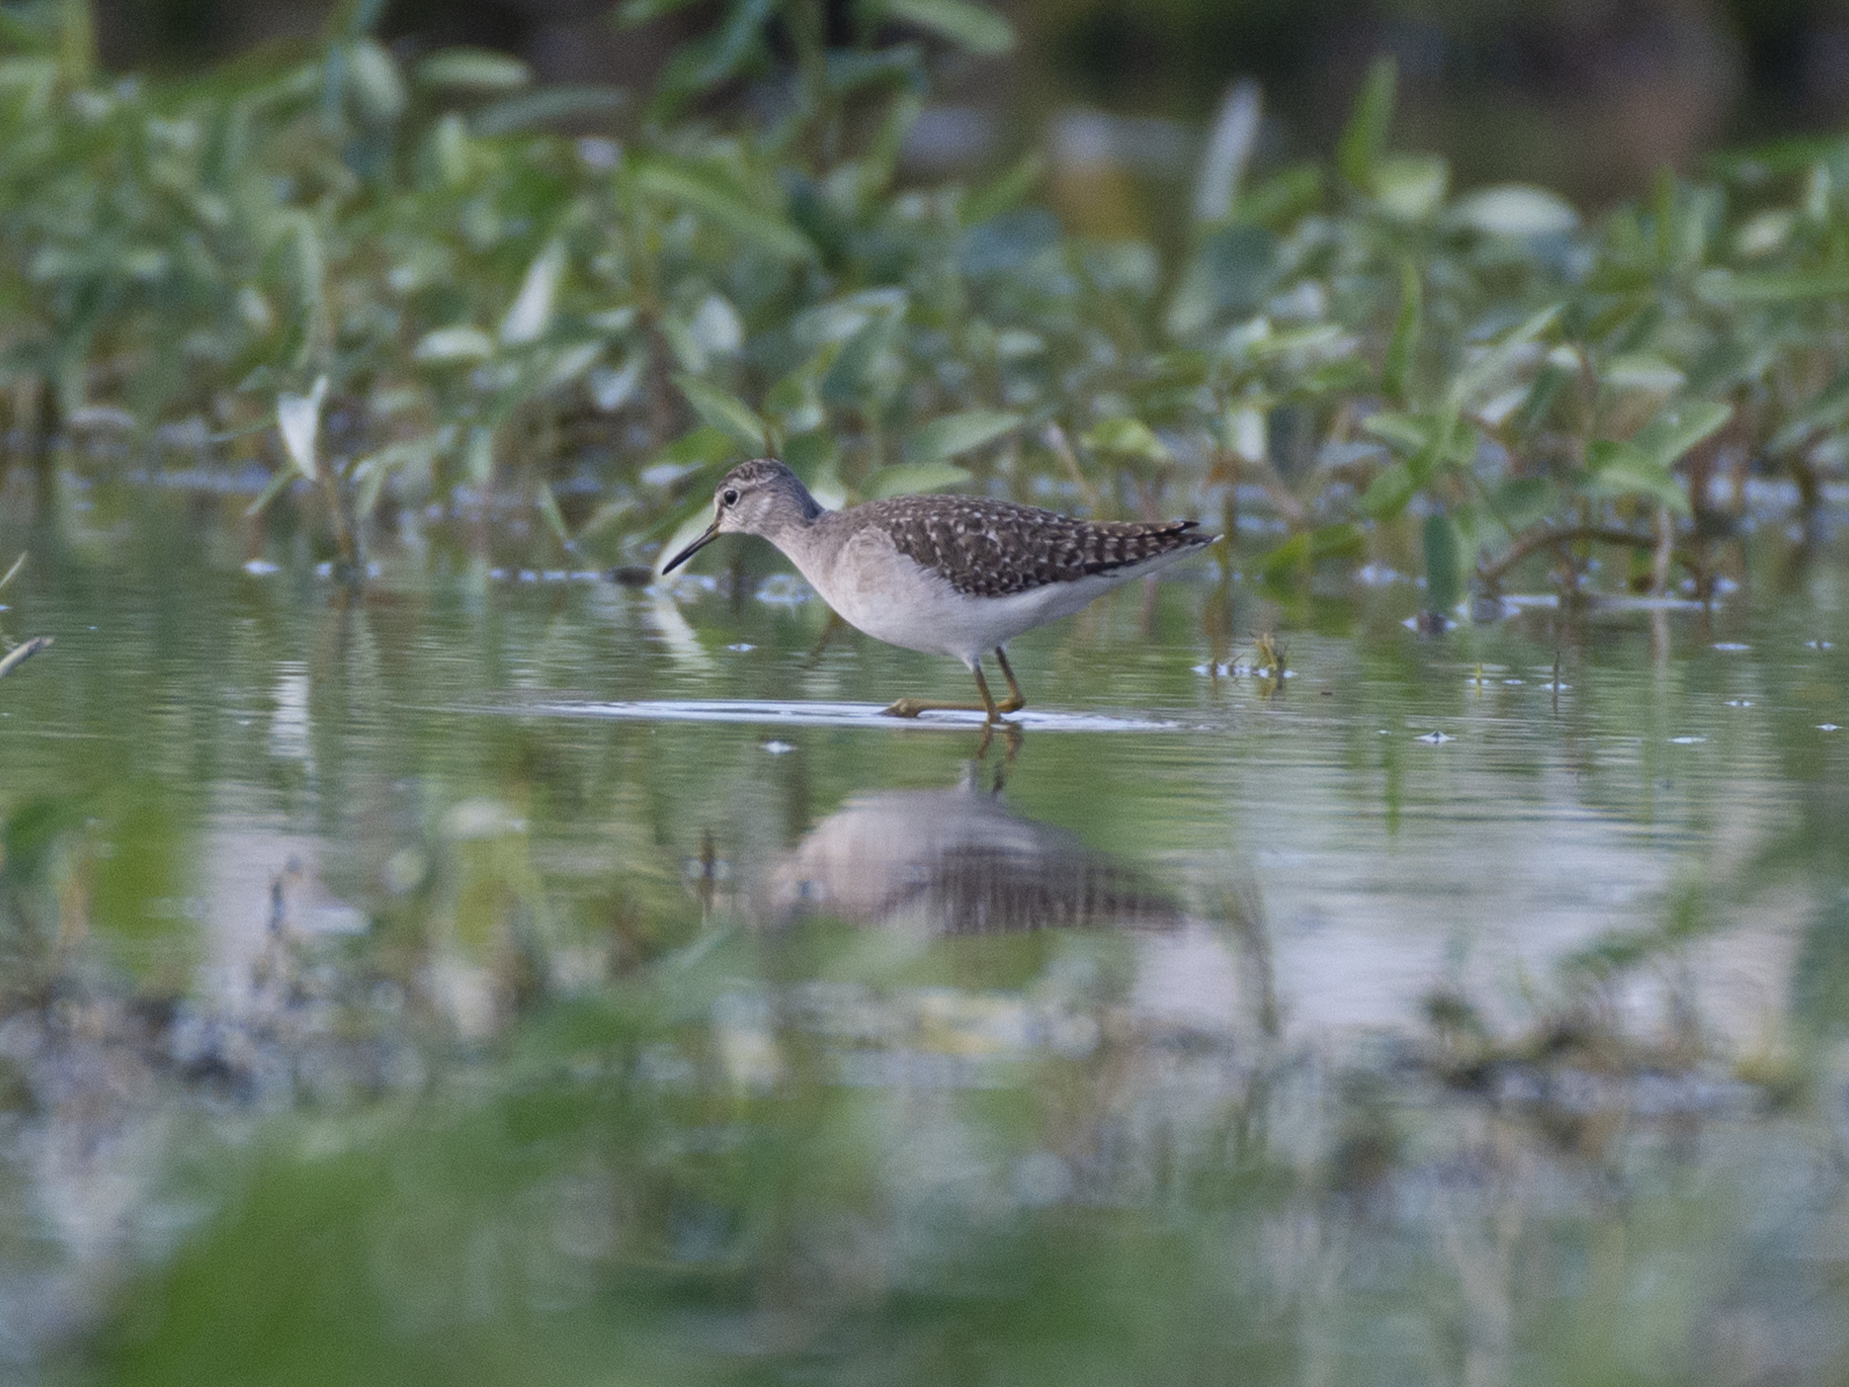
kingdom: Animalia
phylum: Chordata
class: Aves
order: Charadriiformes
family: Scolopacidae
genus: Tringa
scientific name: Tringa glareola
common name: Wood sandpiper
